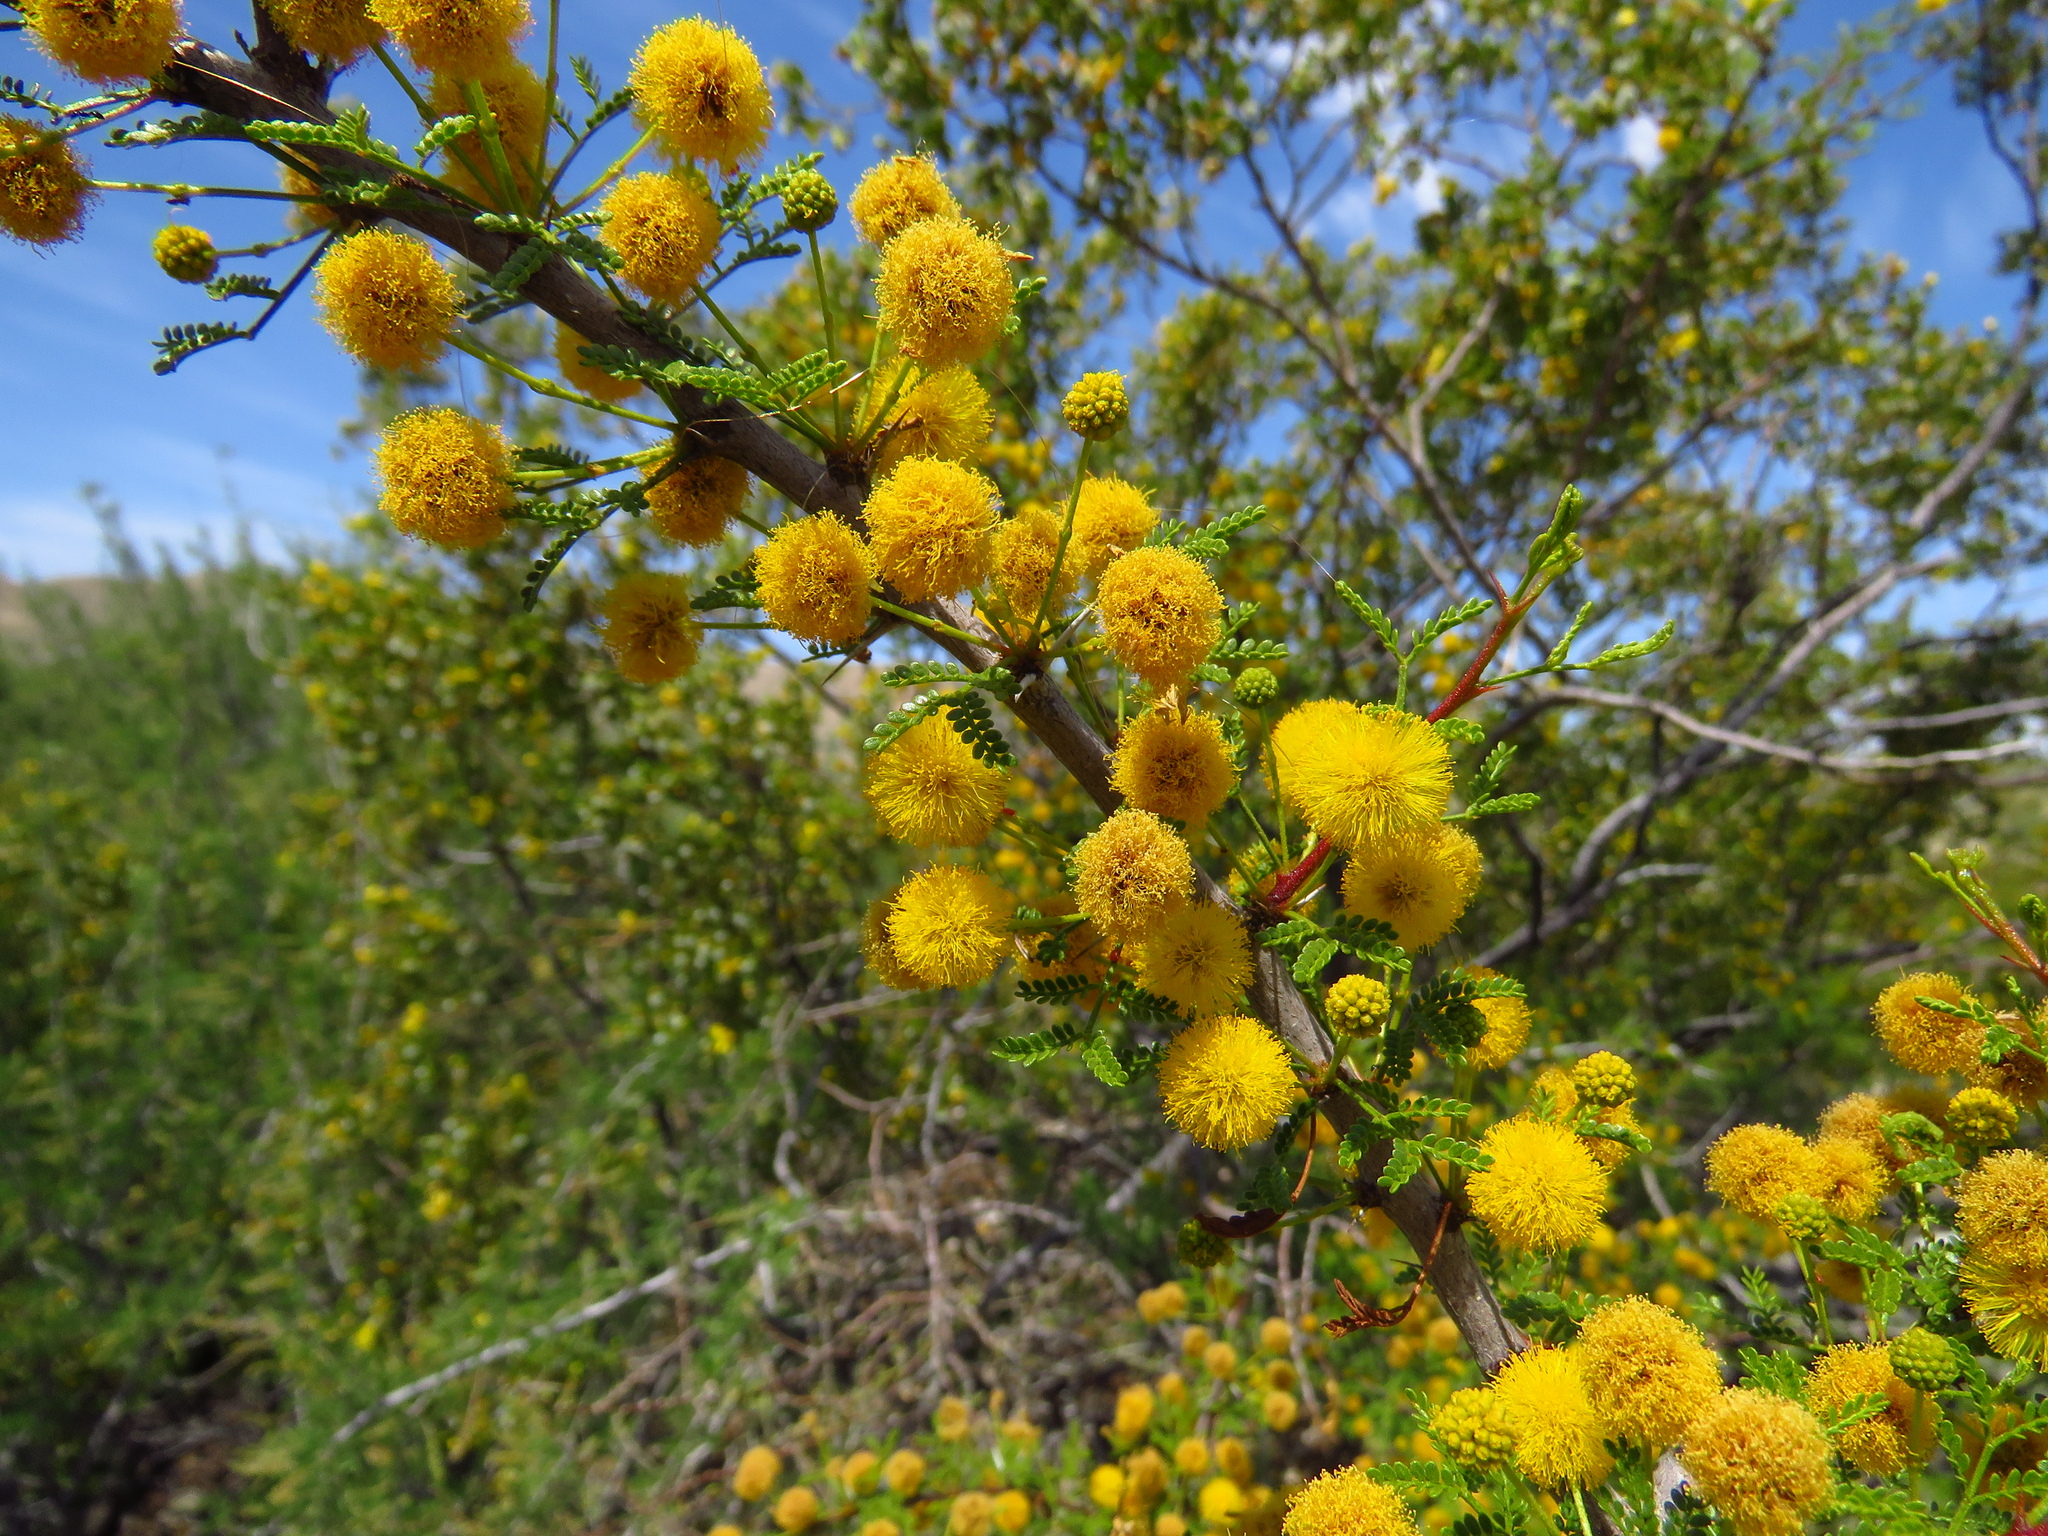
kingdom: Plantae
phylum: Tracheophyta
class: Magnoliopsida
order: Fabales
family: Fabaceae
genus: Vachellia
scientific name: Vachellia vernicosa
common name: Viscid acacia
